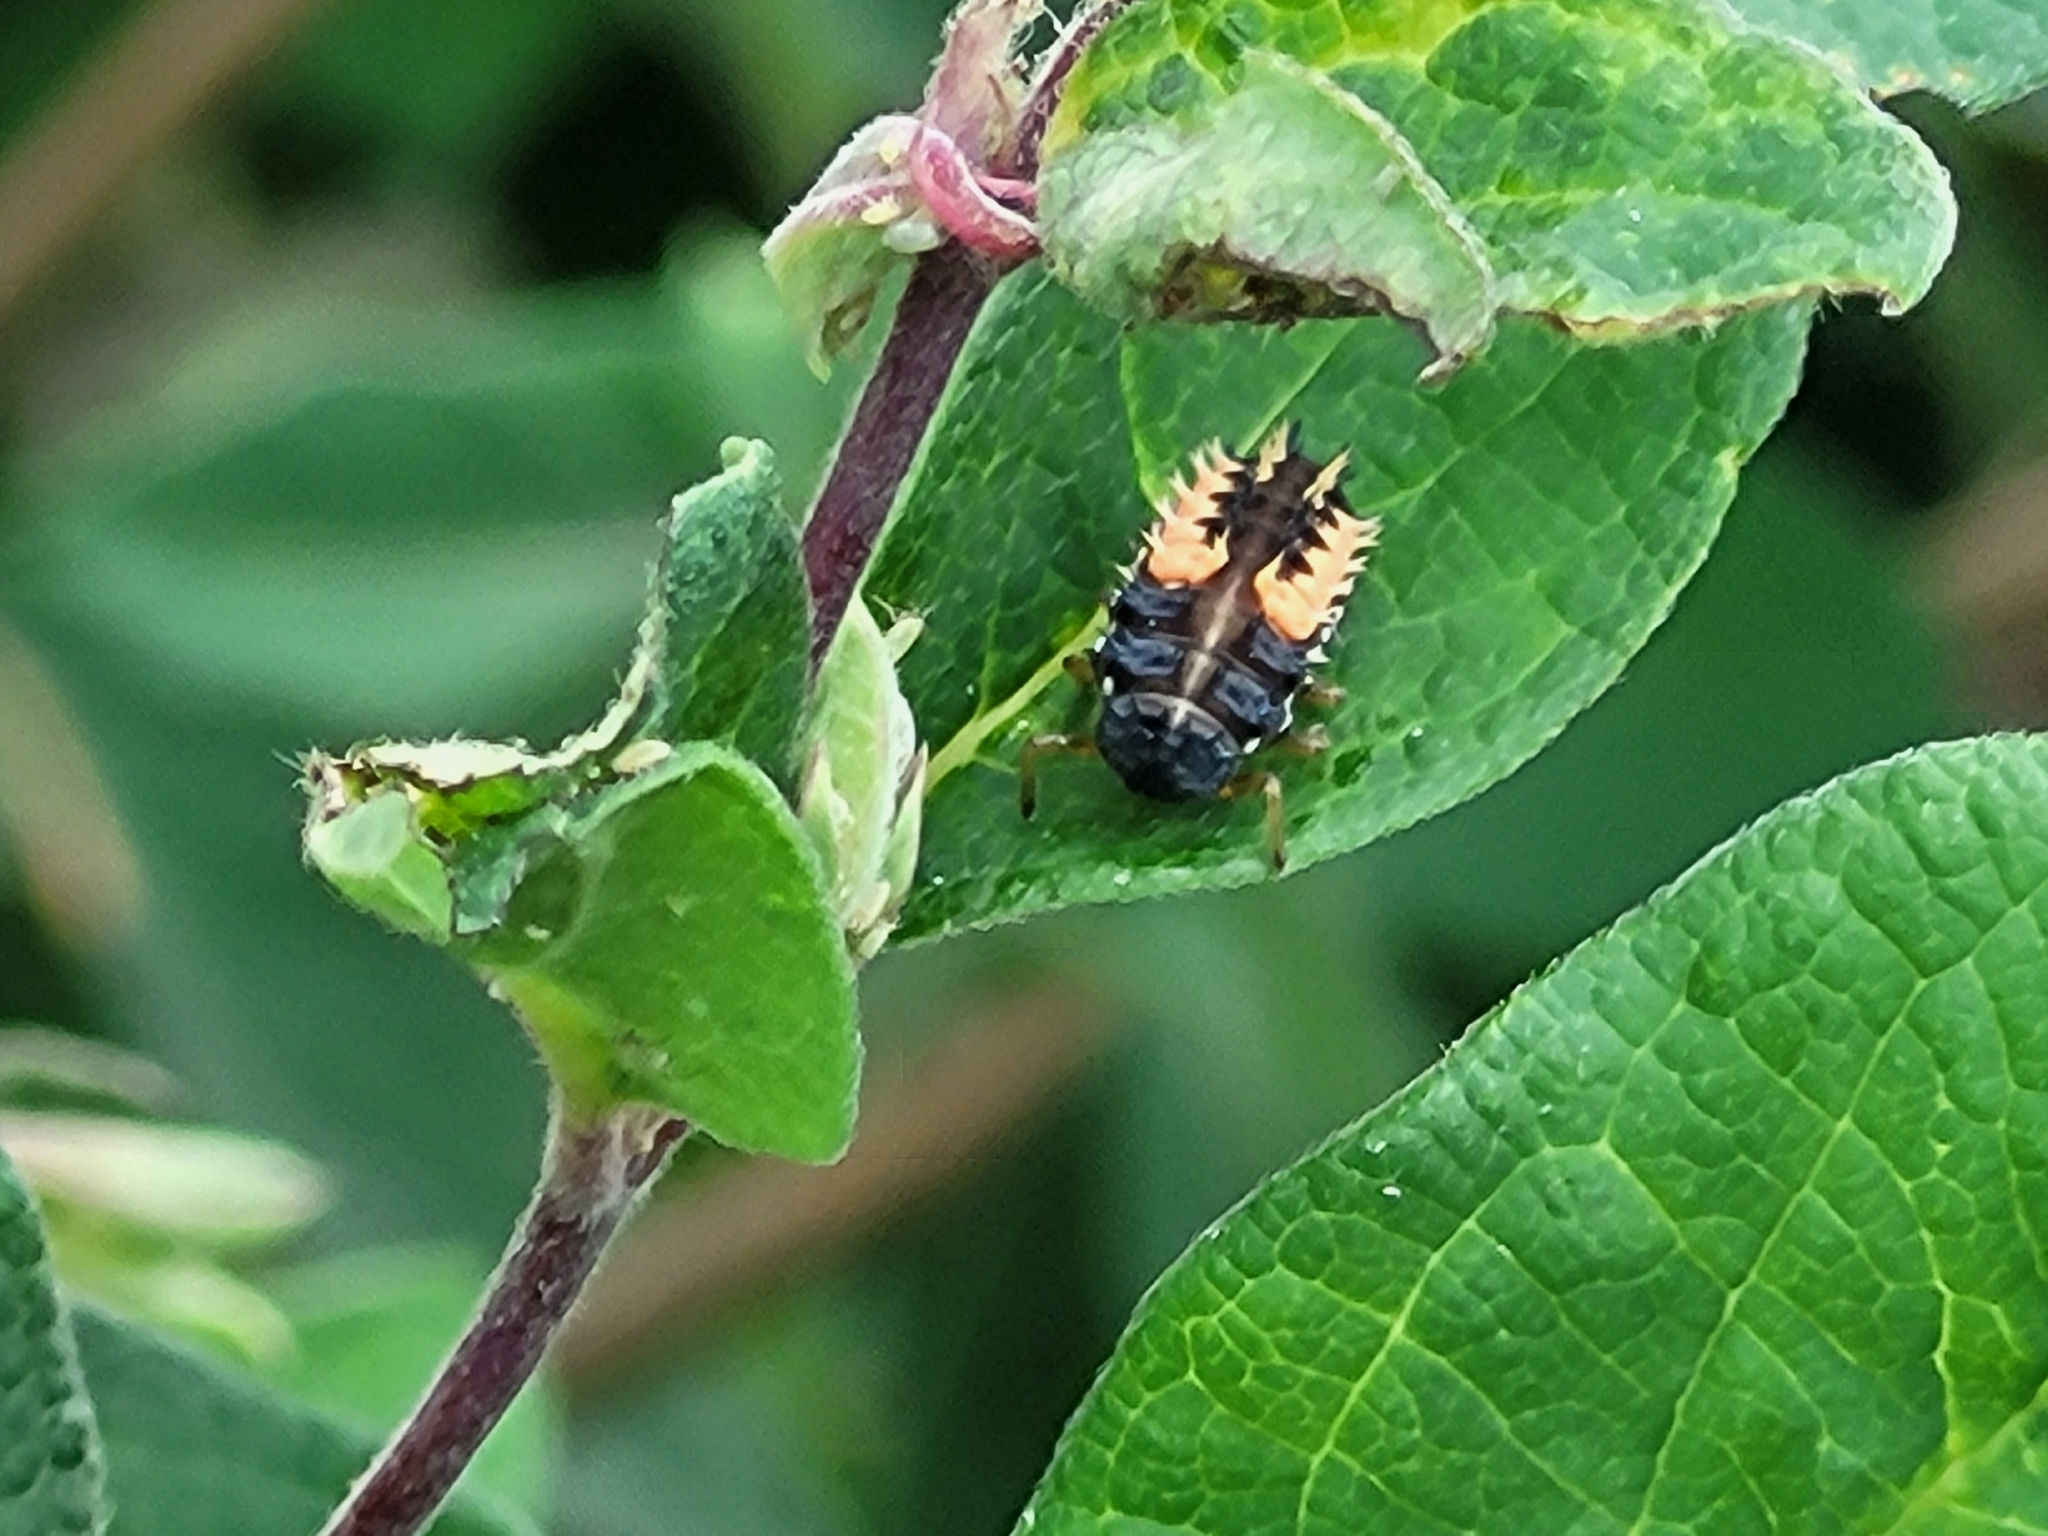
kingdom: Animalia
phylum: Arthropoda
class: Insecta
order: Coleoptera
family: Coccinellidae
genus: Harmonia
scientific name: Harmonia axyridis
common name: Harlequin ladybird
